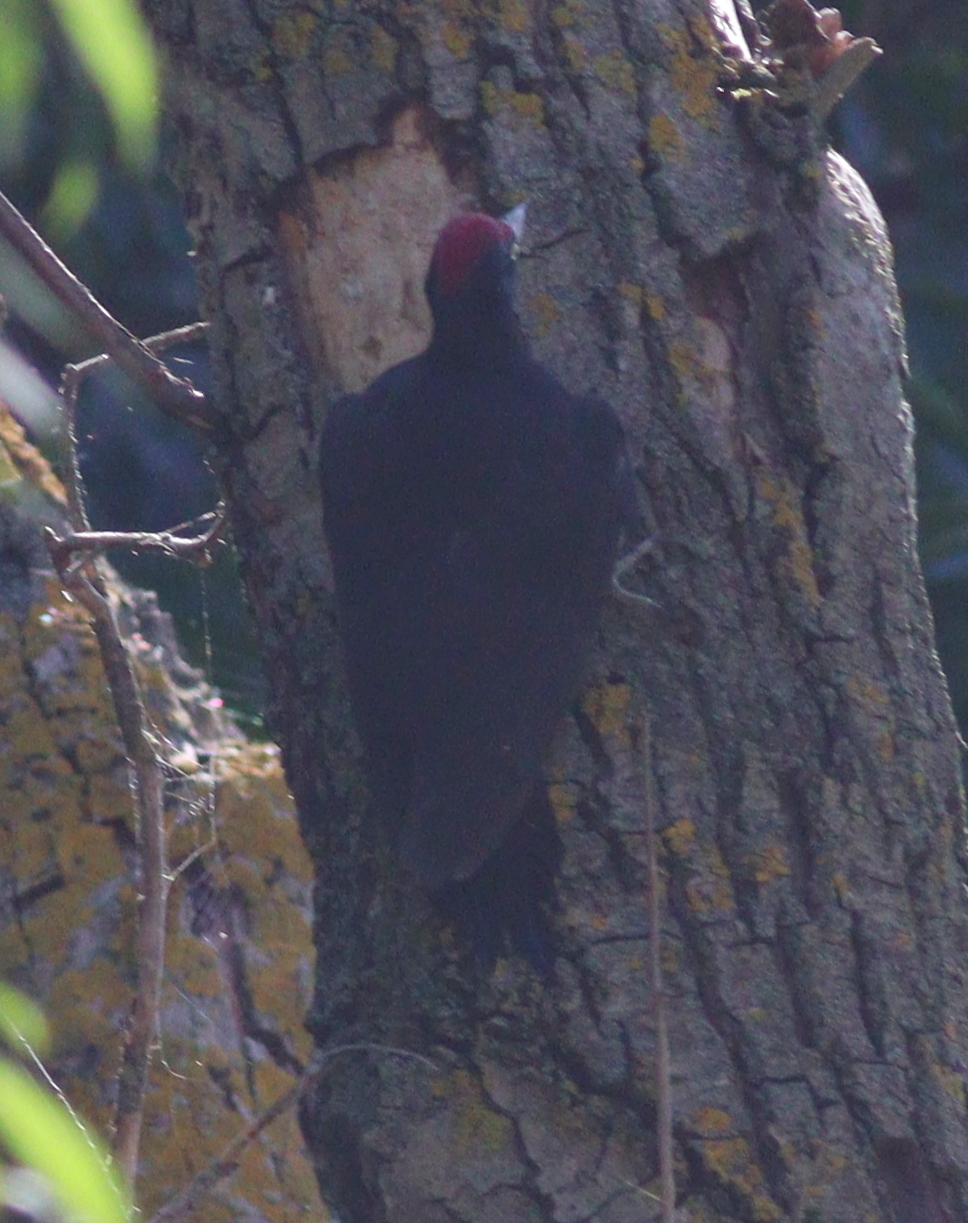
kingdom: Animalia
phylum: Chordata
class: Aves
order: Piciformes
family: Picidae
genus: Dryocopus
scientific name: Dryocopus martius
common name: Black woodpecker
